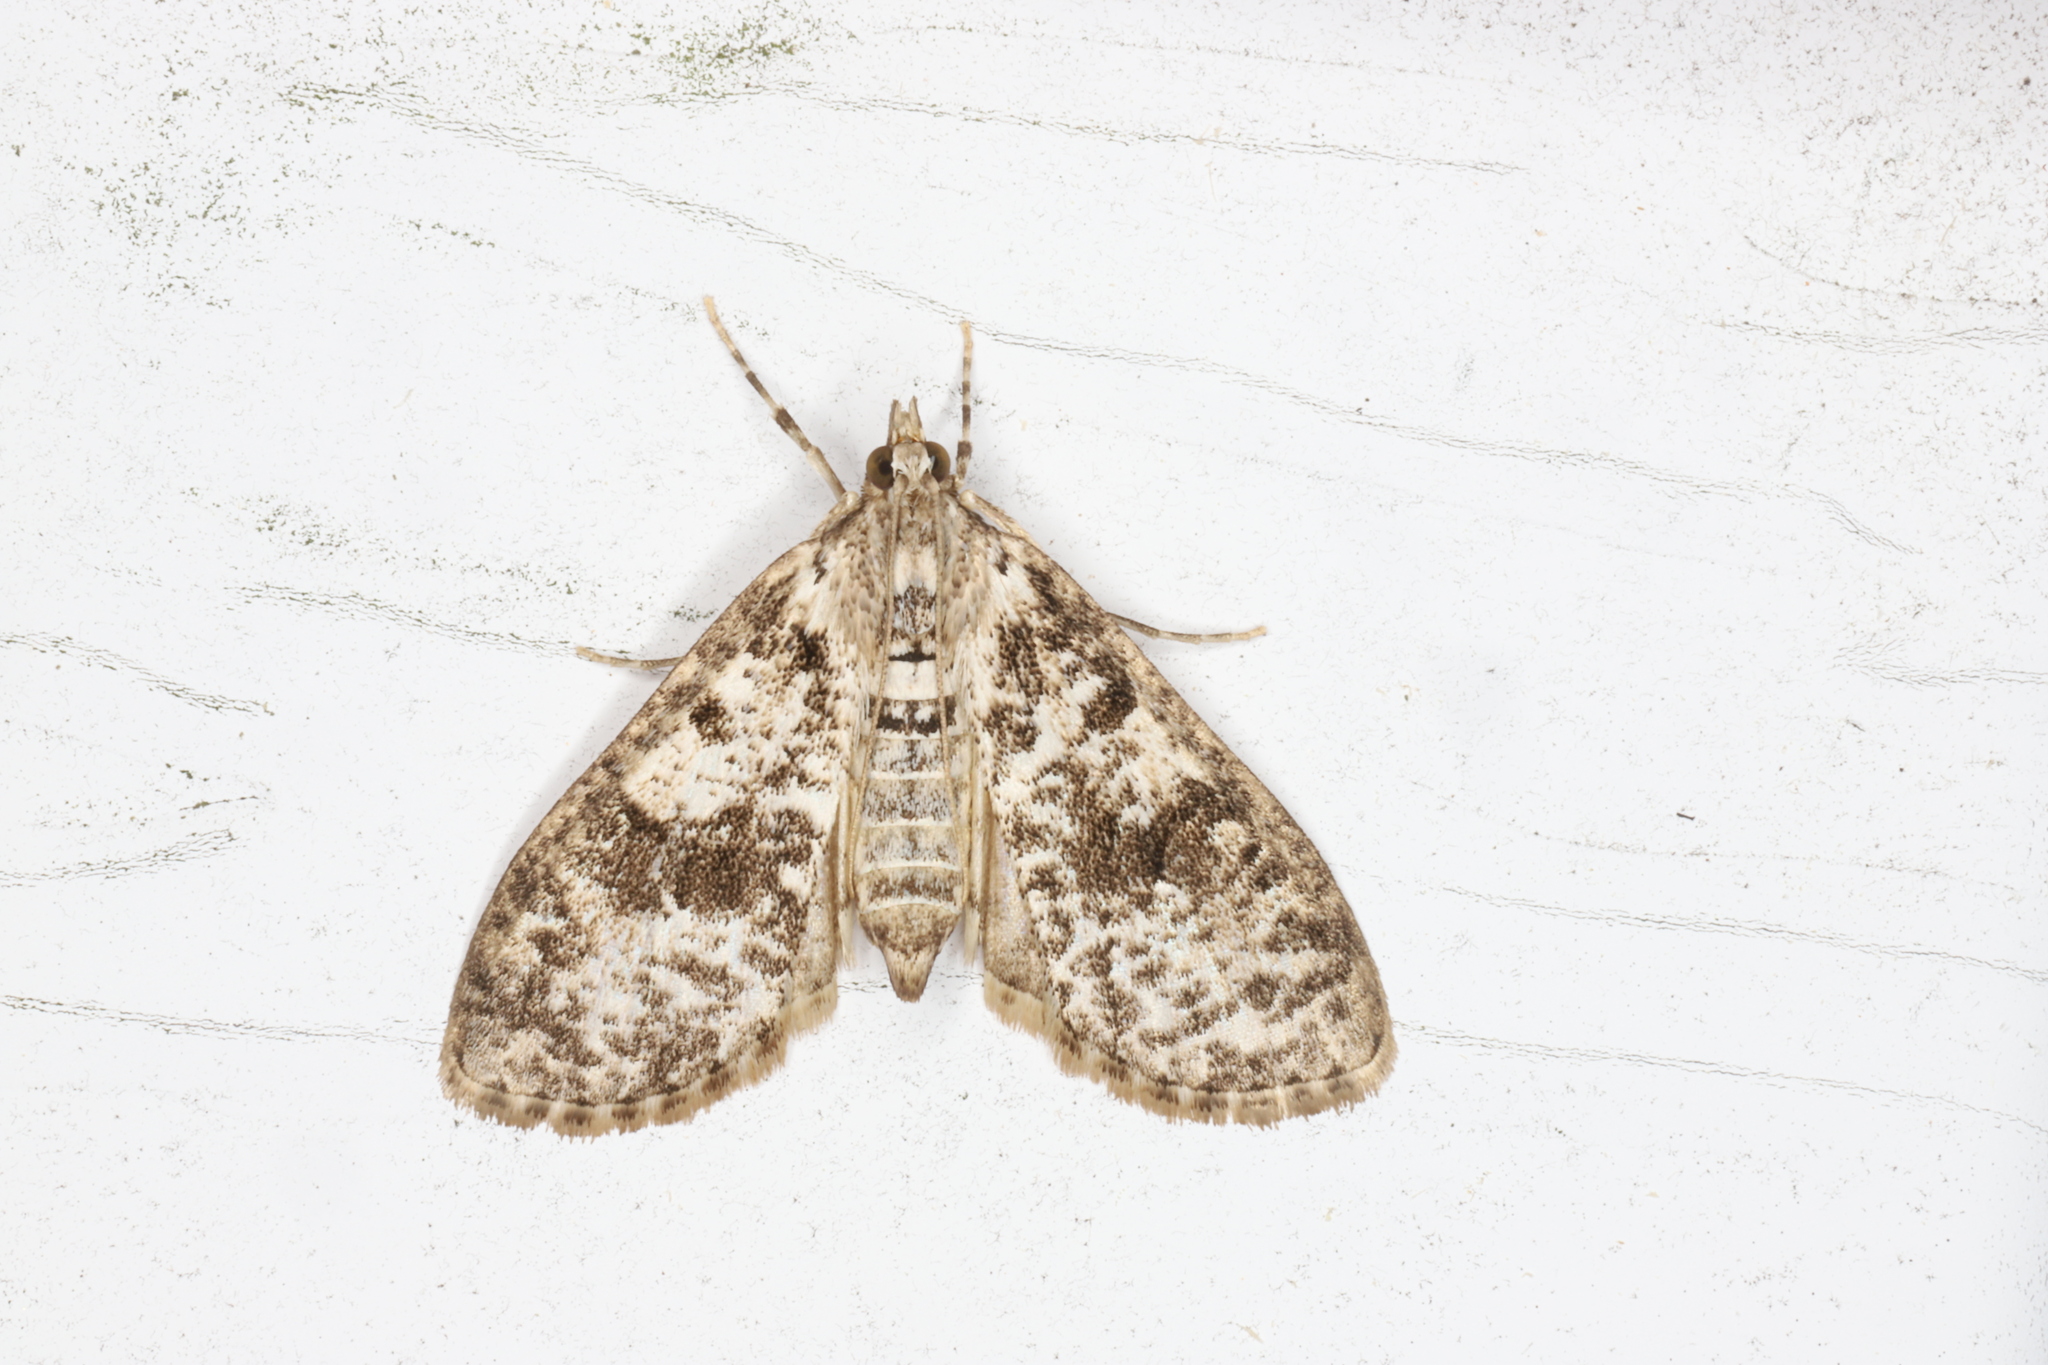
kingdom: Animalia
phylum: Arthropoda
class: Insecta
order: Lepidoptera
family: Crambidae
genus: Palpita
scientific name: Palpita magniferalis
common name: Splendid palpita moth
